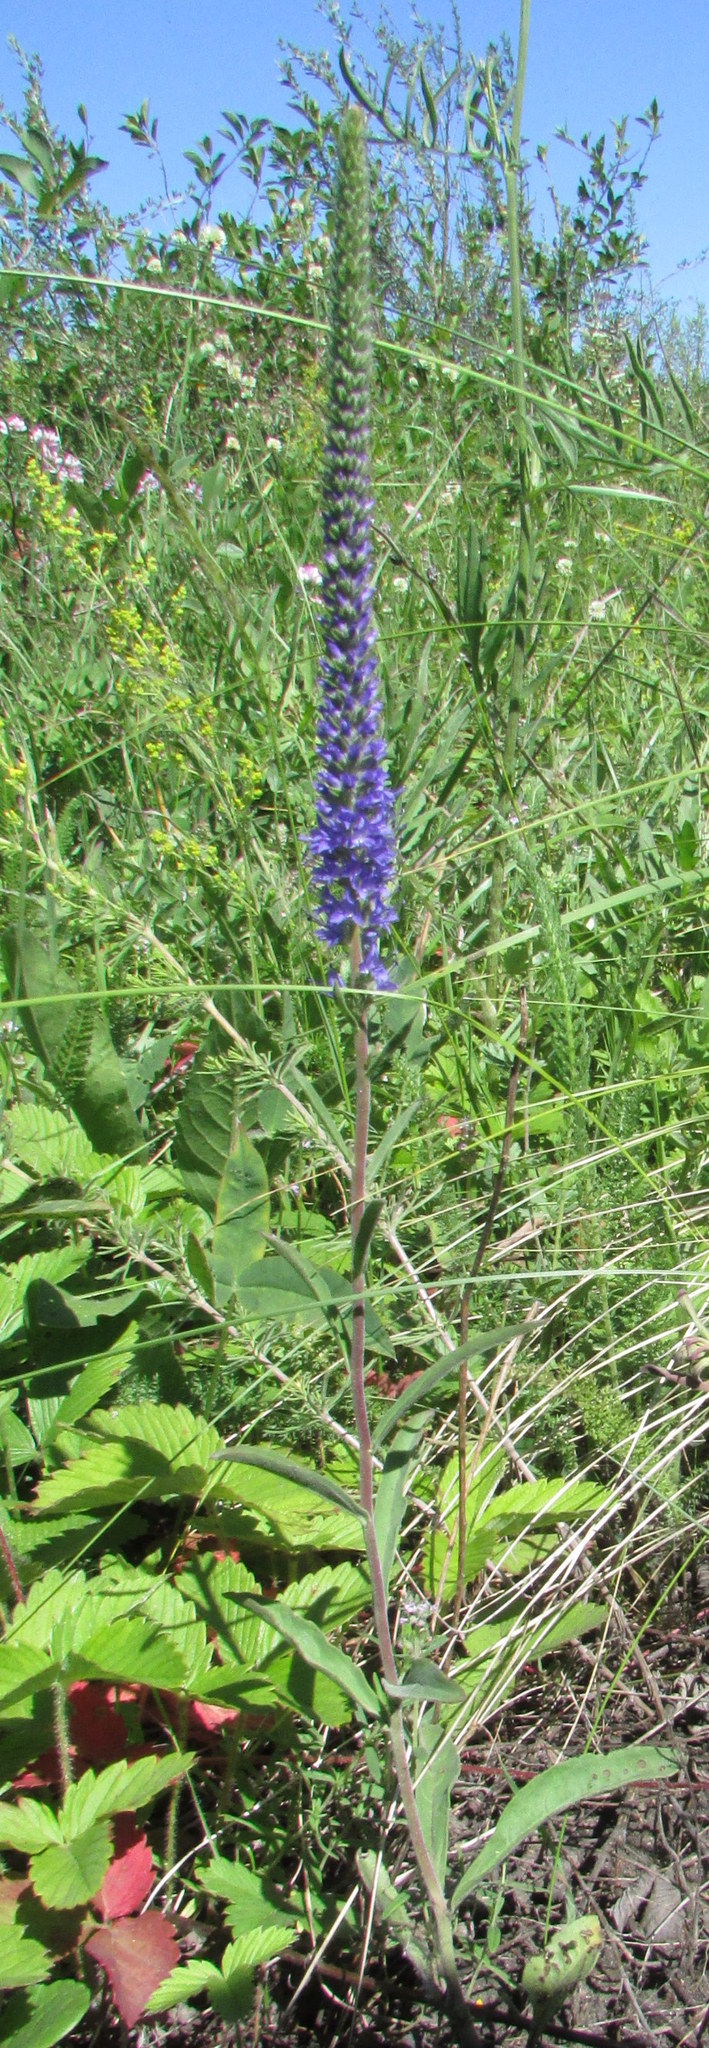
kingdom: Plantae
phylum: Tracheophyta
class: Magnoliopsida
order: Lamiales
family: Plantaginaceae
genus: Veronica
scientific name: Veronica spicata
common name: Spiked speedwell
